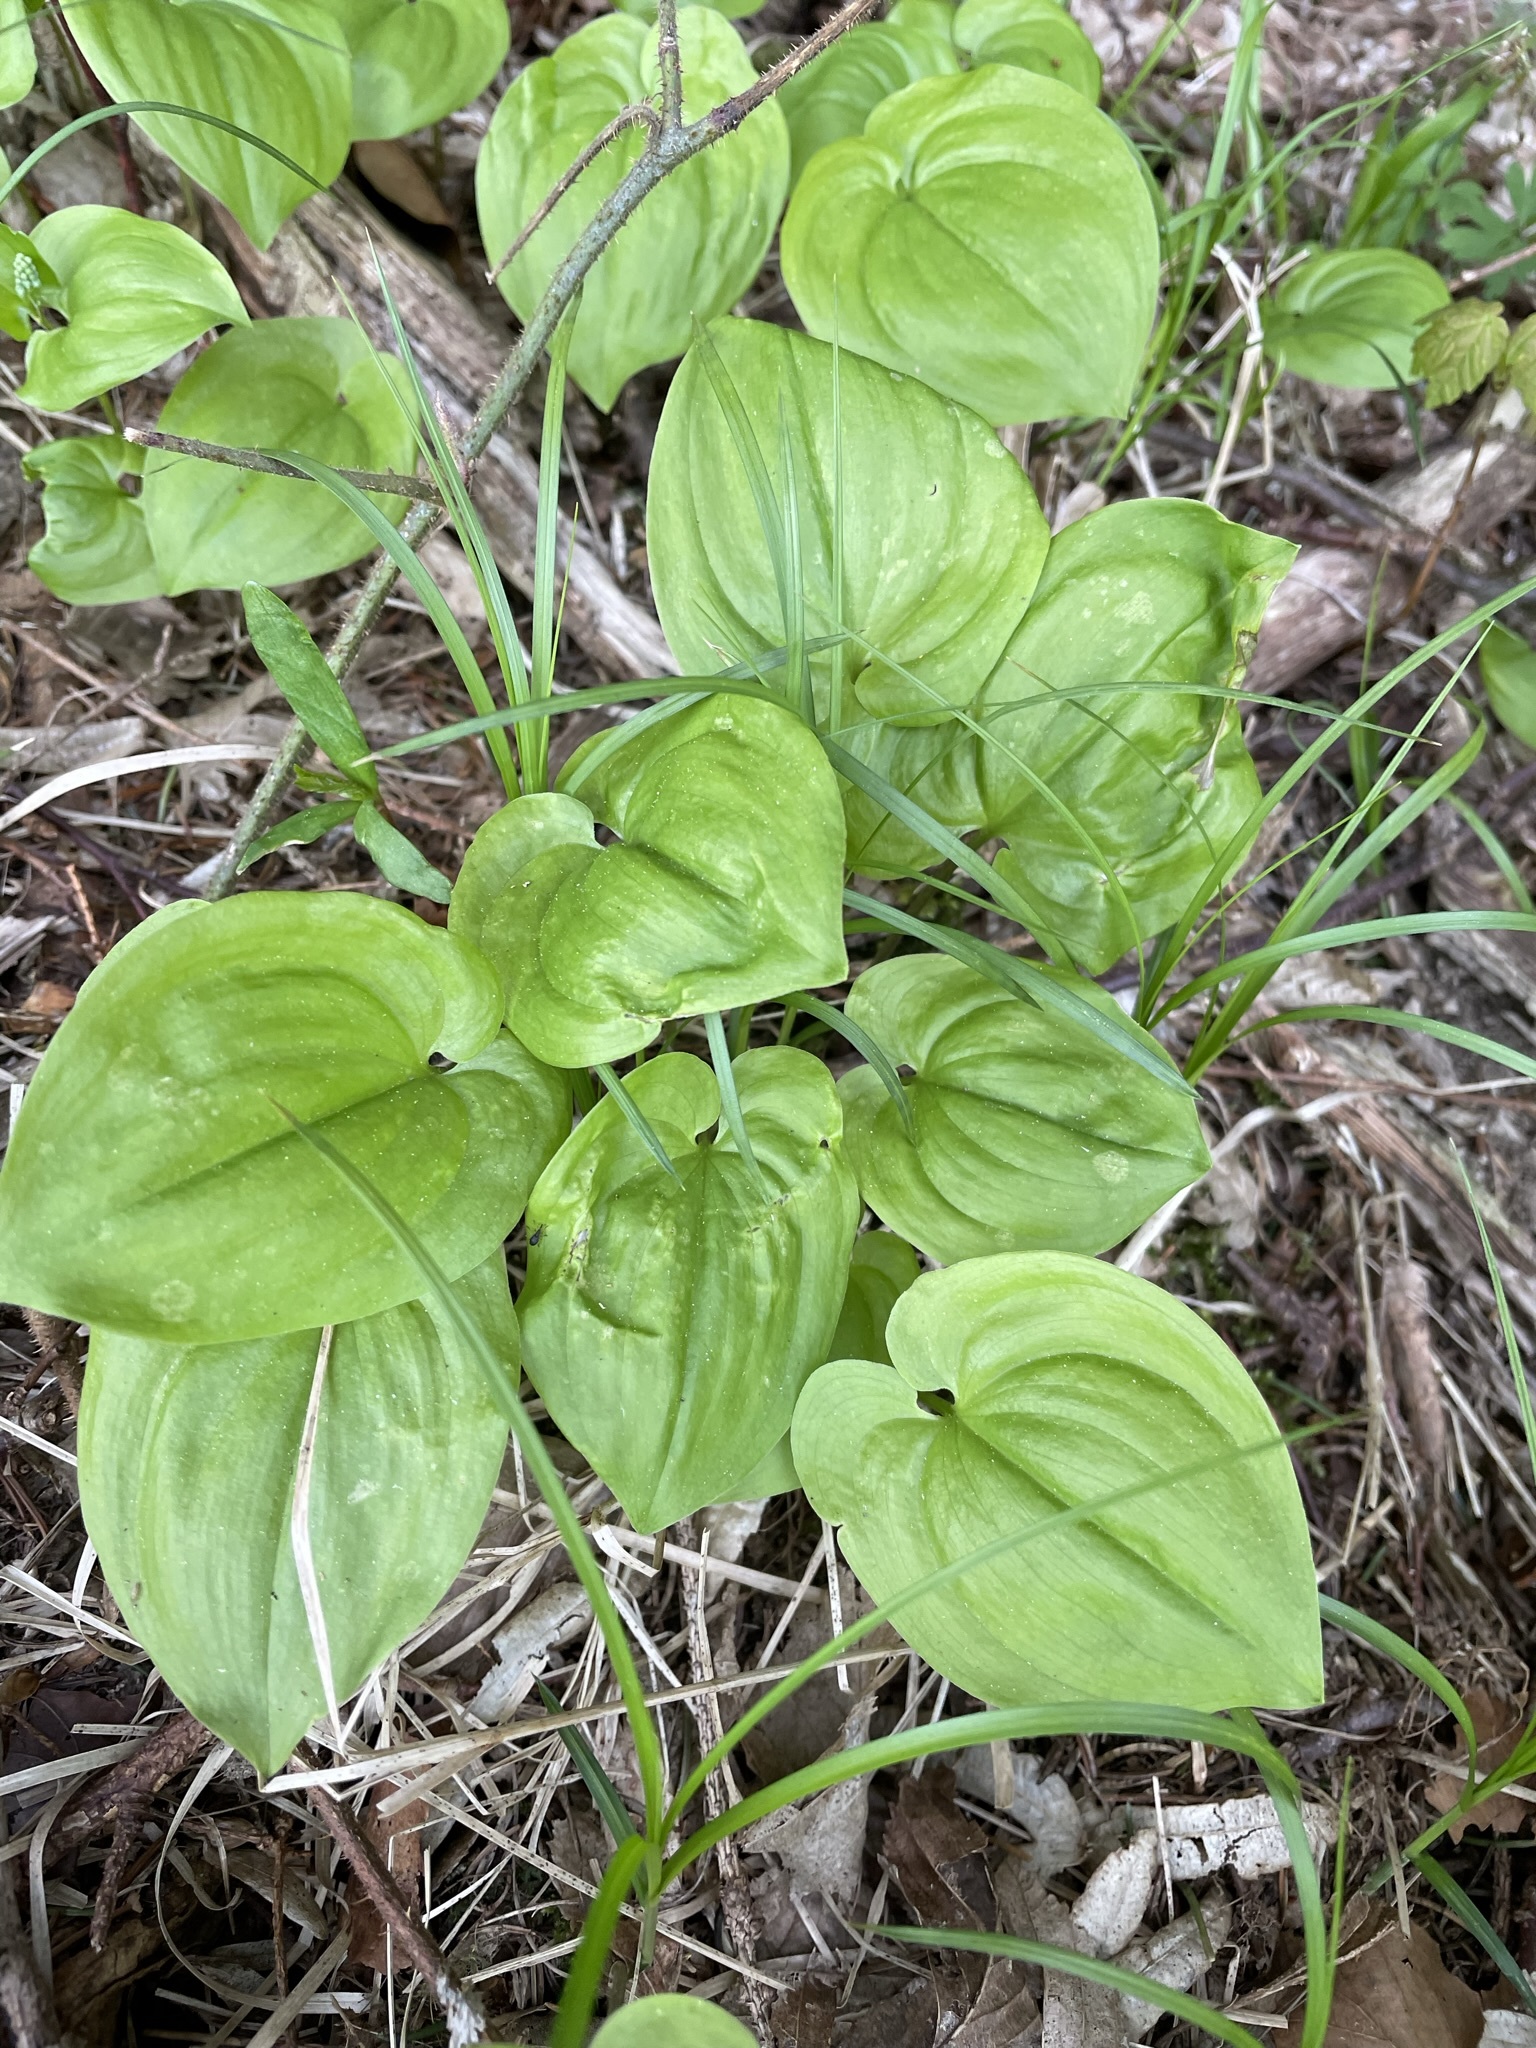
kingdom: Plantae
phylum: Tracheophyta
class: Liliopsida
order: Asparagales
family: Asparagaceae
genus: Maianthemum
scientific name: Maianthemum bifolium
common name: May lily
